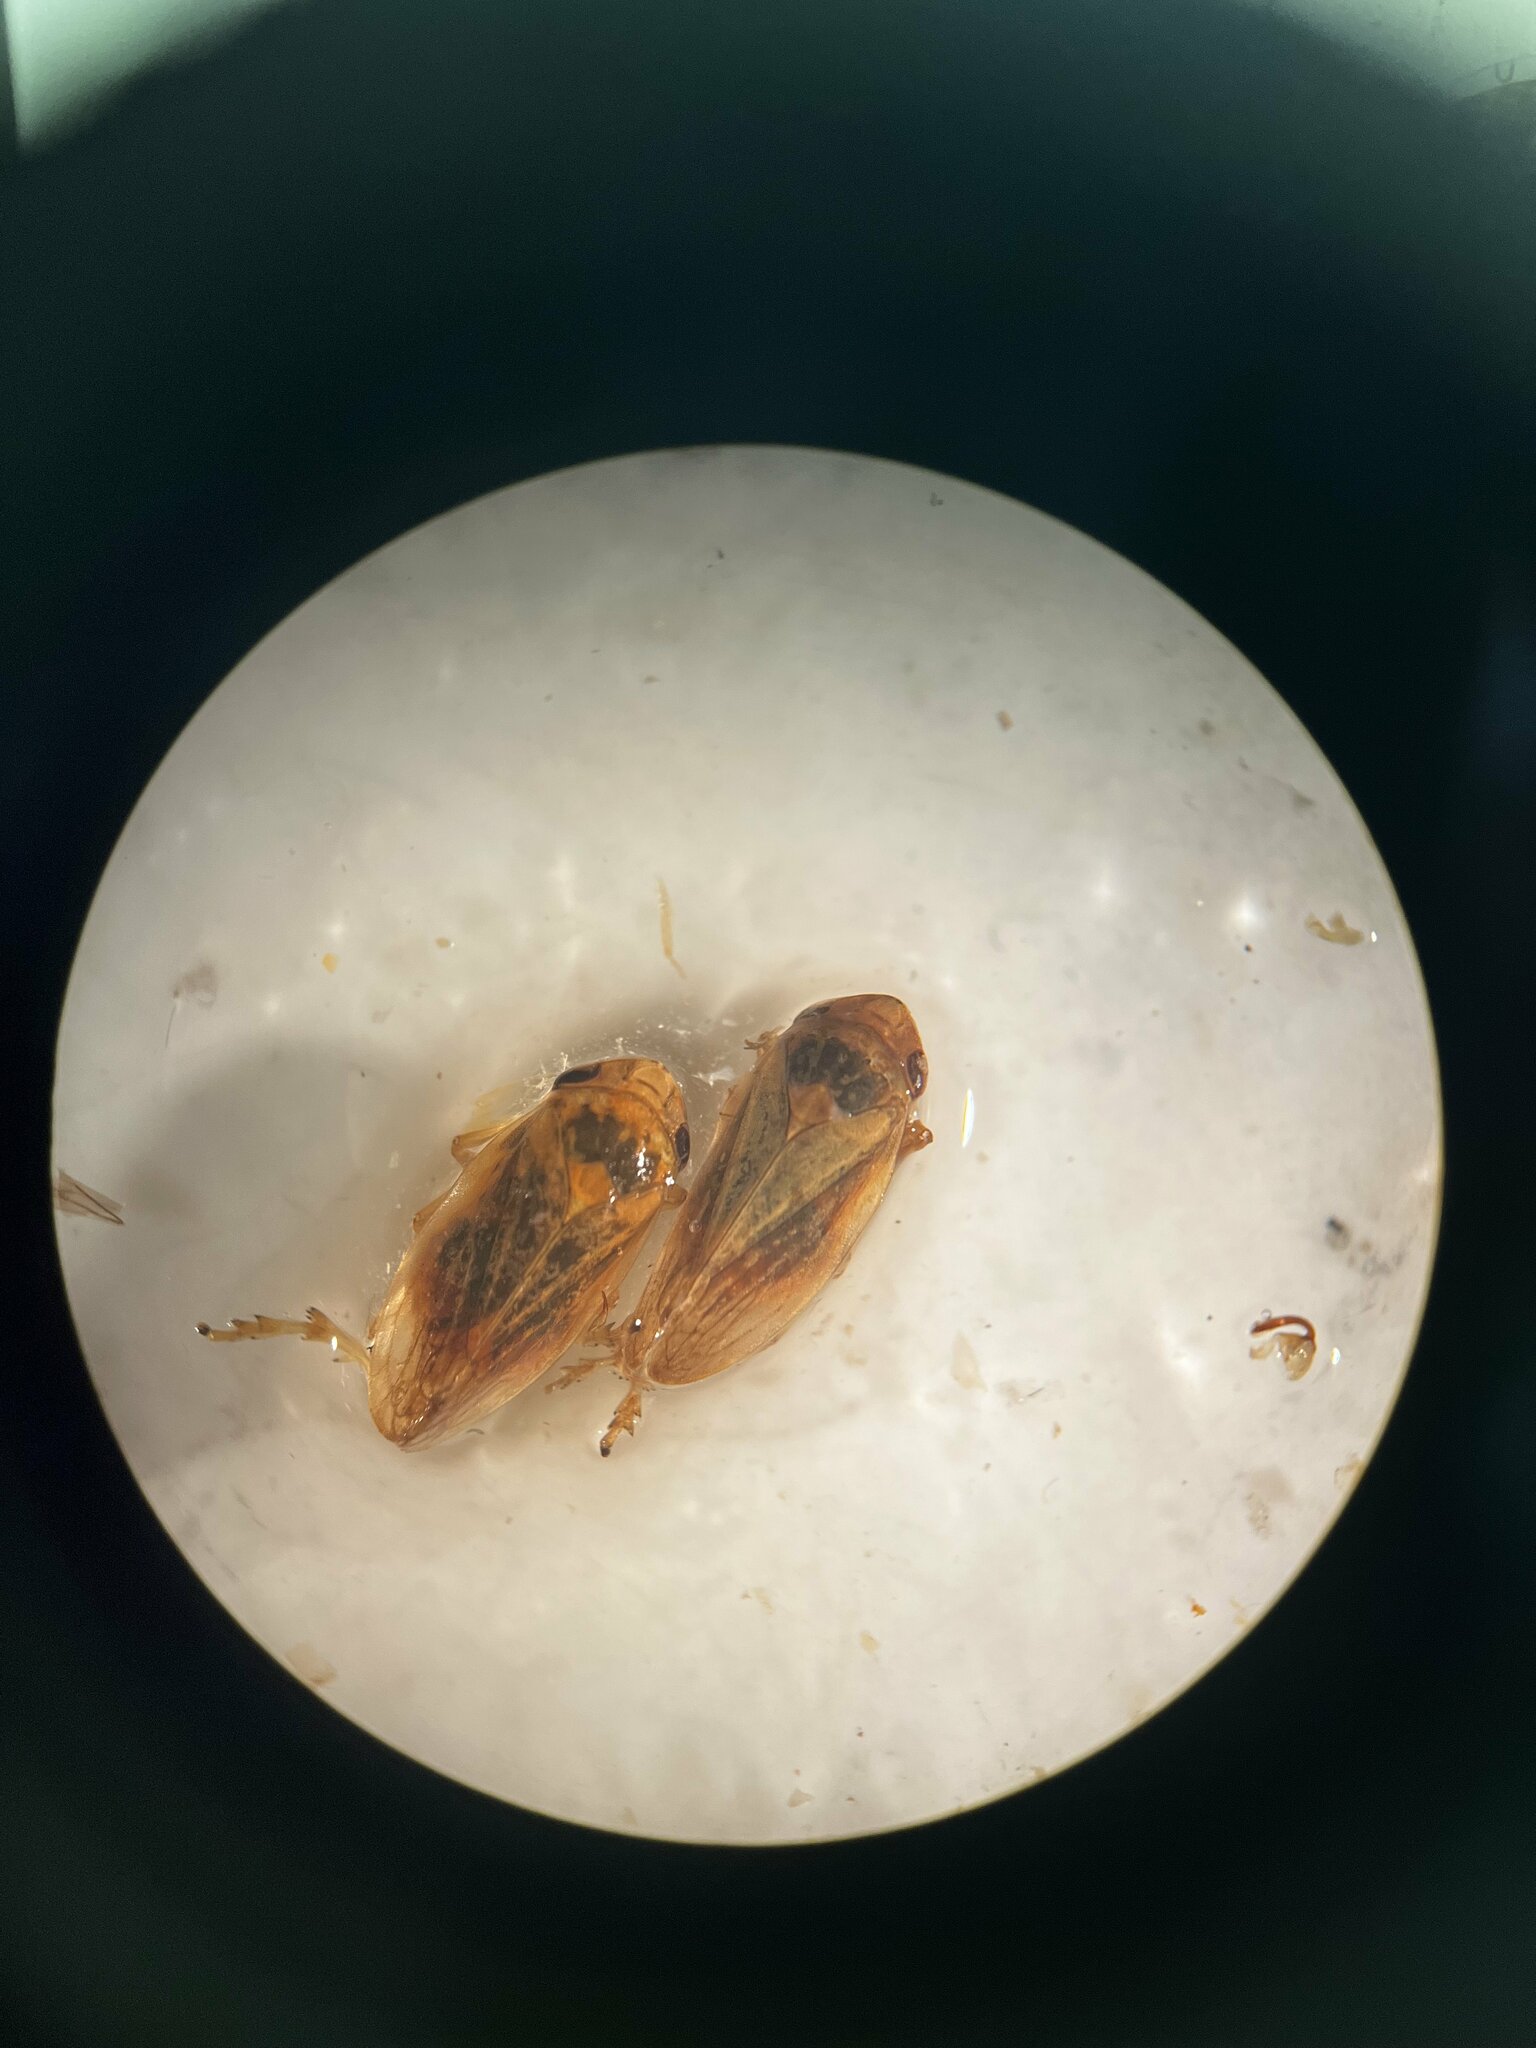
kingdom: Animalia
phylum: Arthropoda
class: Insecta
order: Hemiptera
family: Aphrophoridae
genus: Philaenus
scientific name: Philaenus spumarius
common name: Meadow spittlebug
